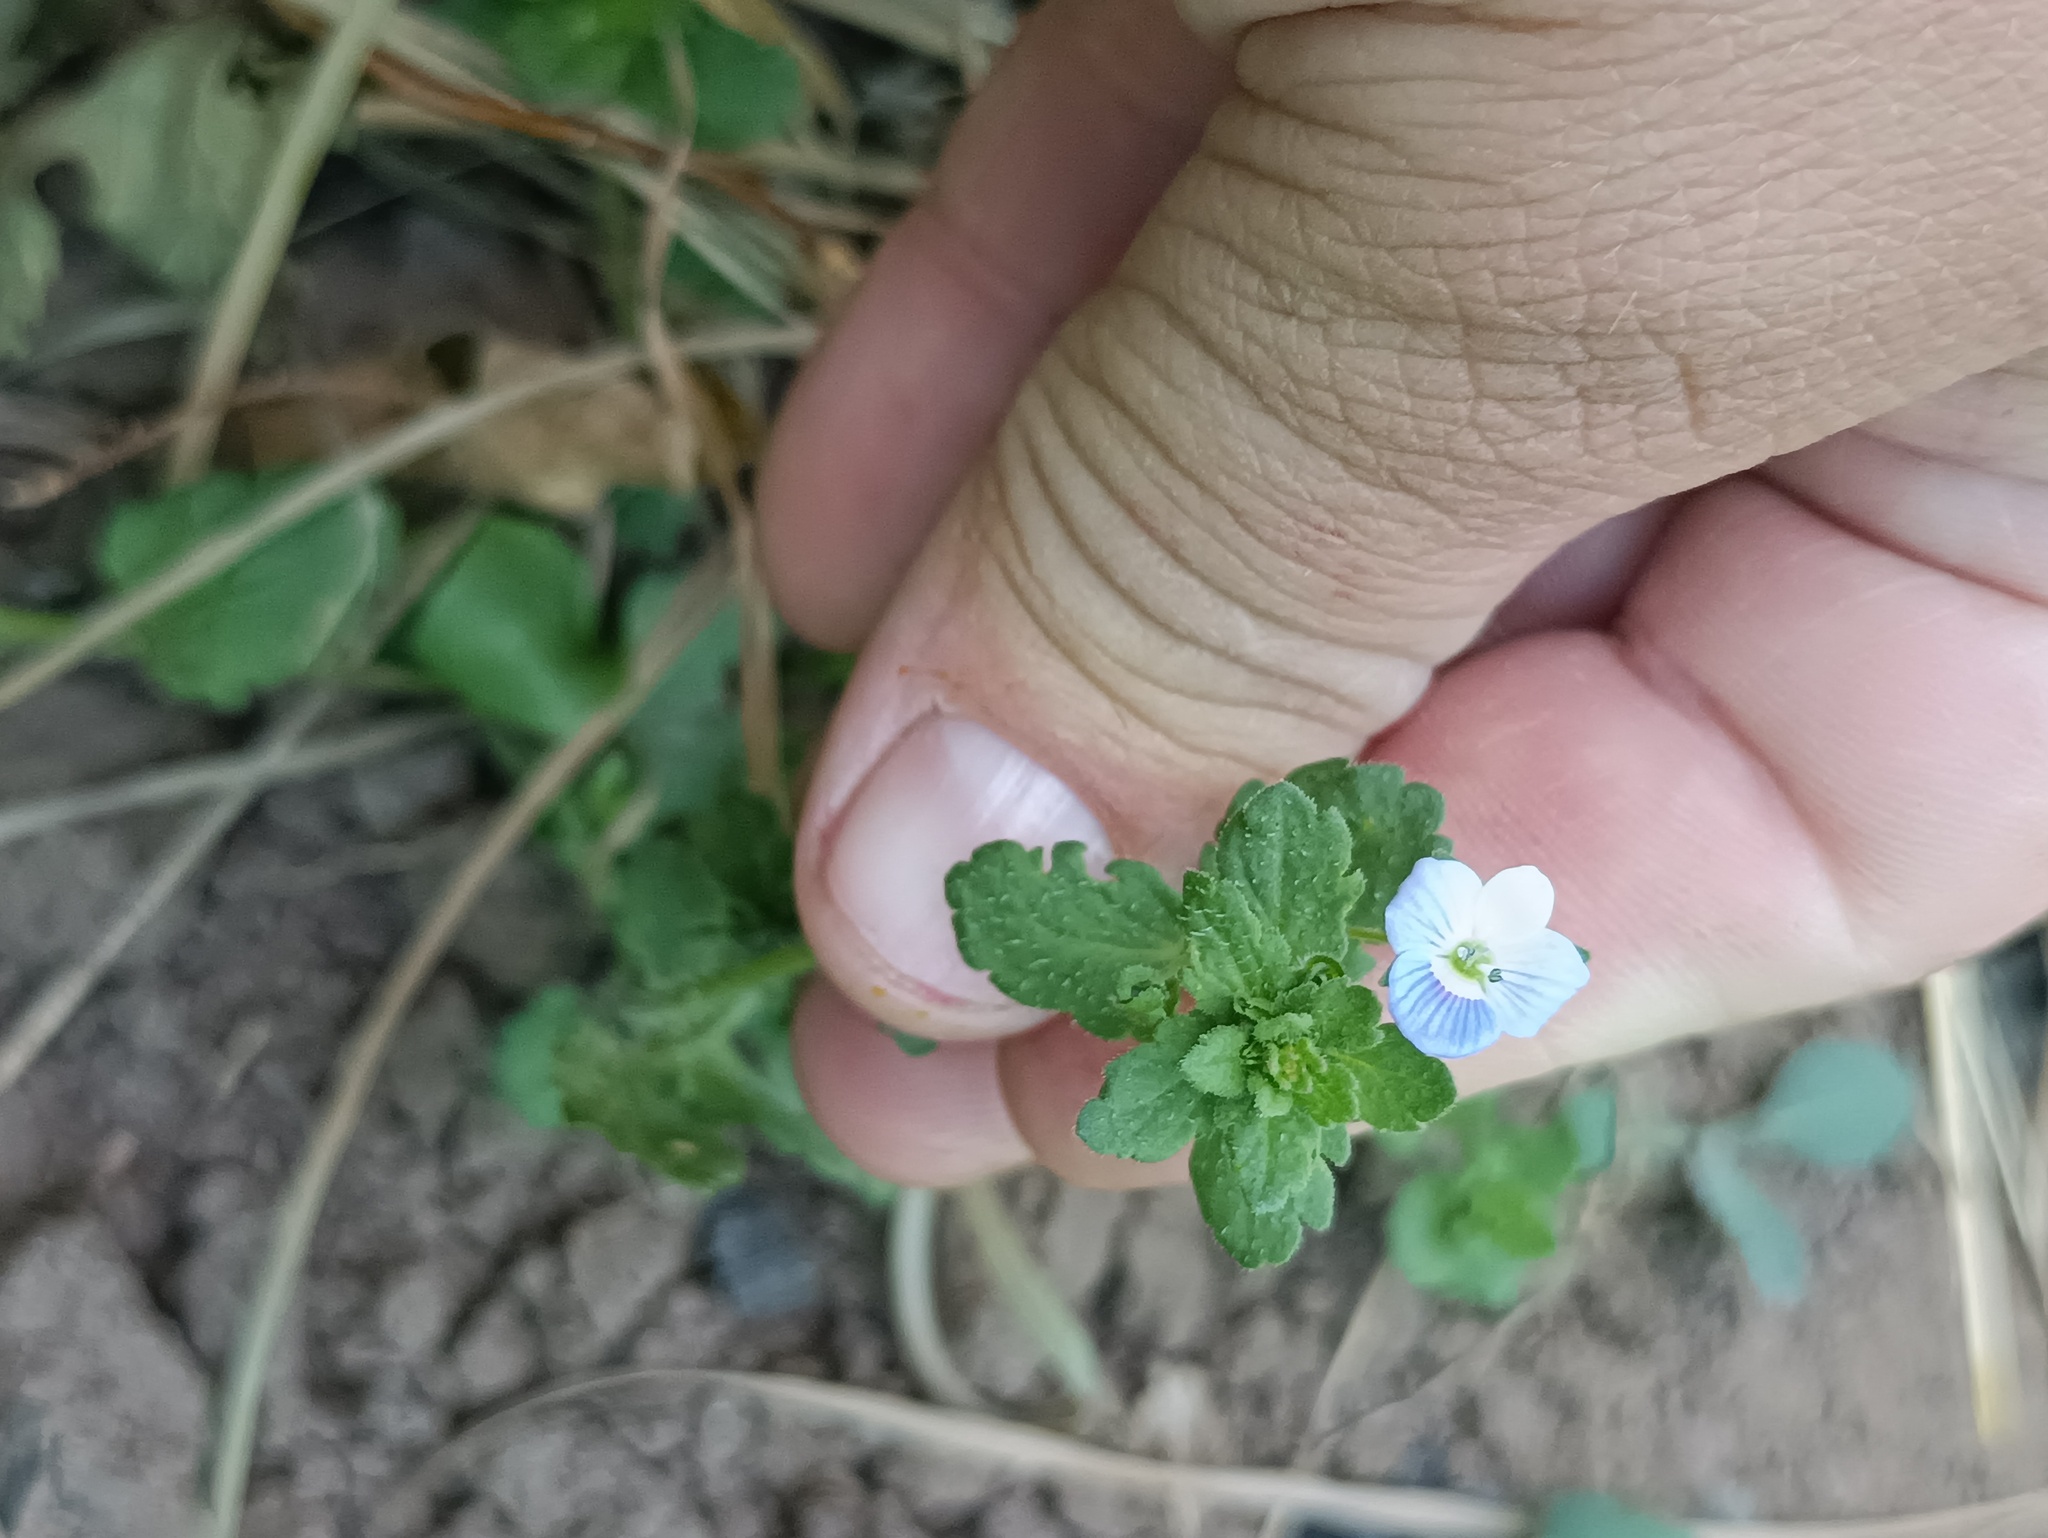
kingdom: Plantae
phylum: Tracheophyta
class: Magnoliopsida
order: Lamiales
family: Plantaginaceae
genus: Veronica
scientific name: Veronica persica
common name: Common field-speedwell
